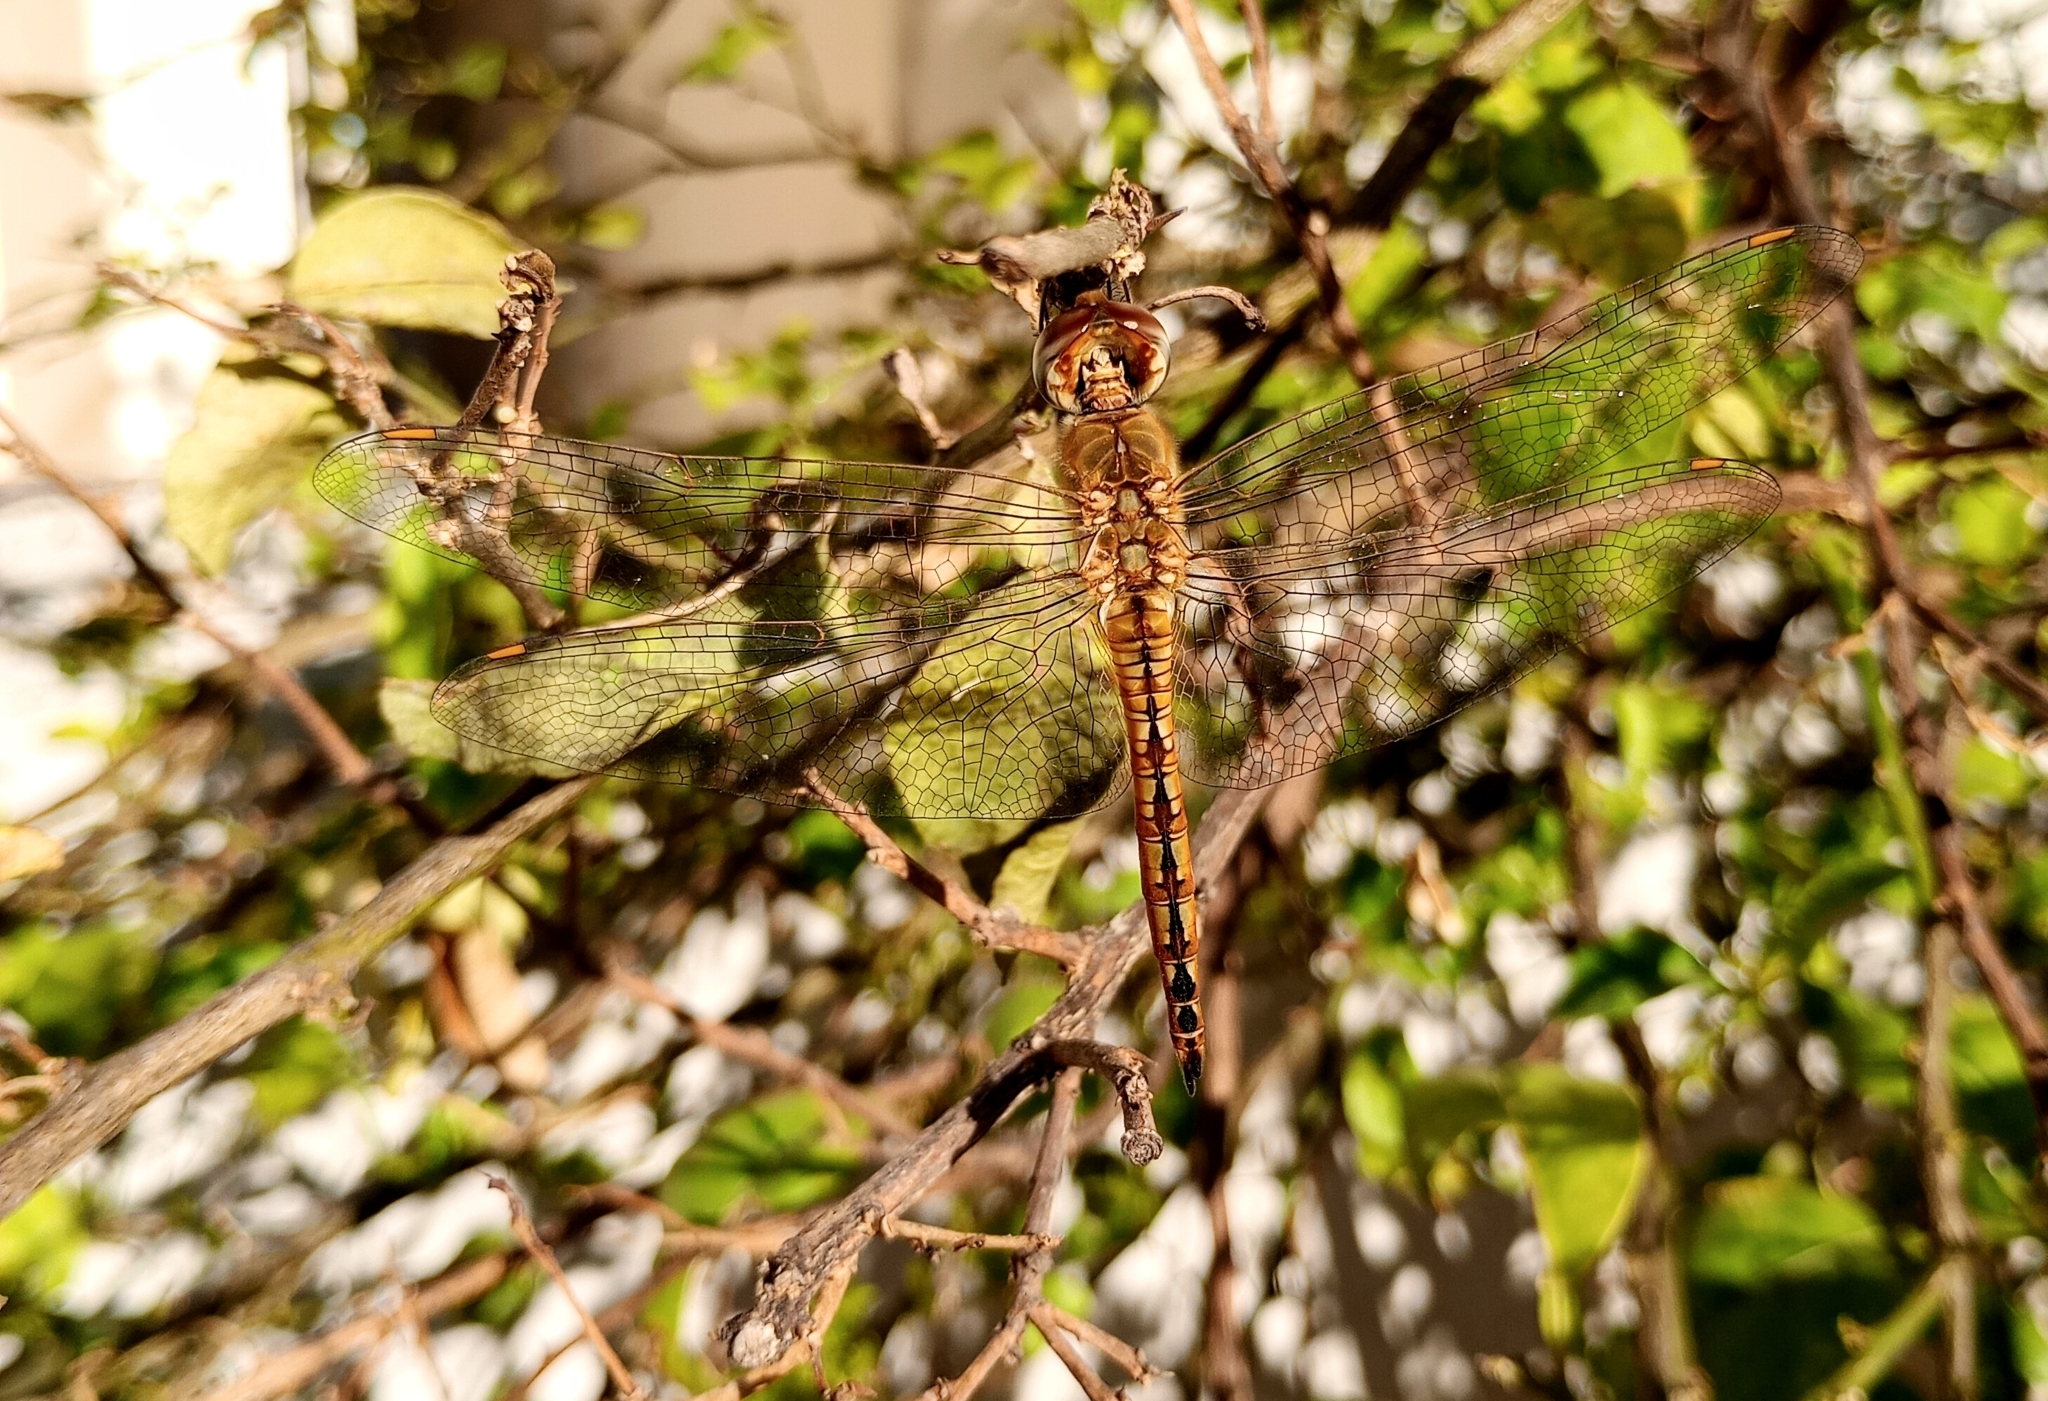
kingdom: Animalia
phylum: Arthropoda
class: Insecta
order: Odonata
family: Libellulidae
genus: Pantala
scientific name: Pantala flavescens
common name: Wandering glider
